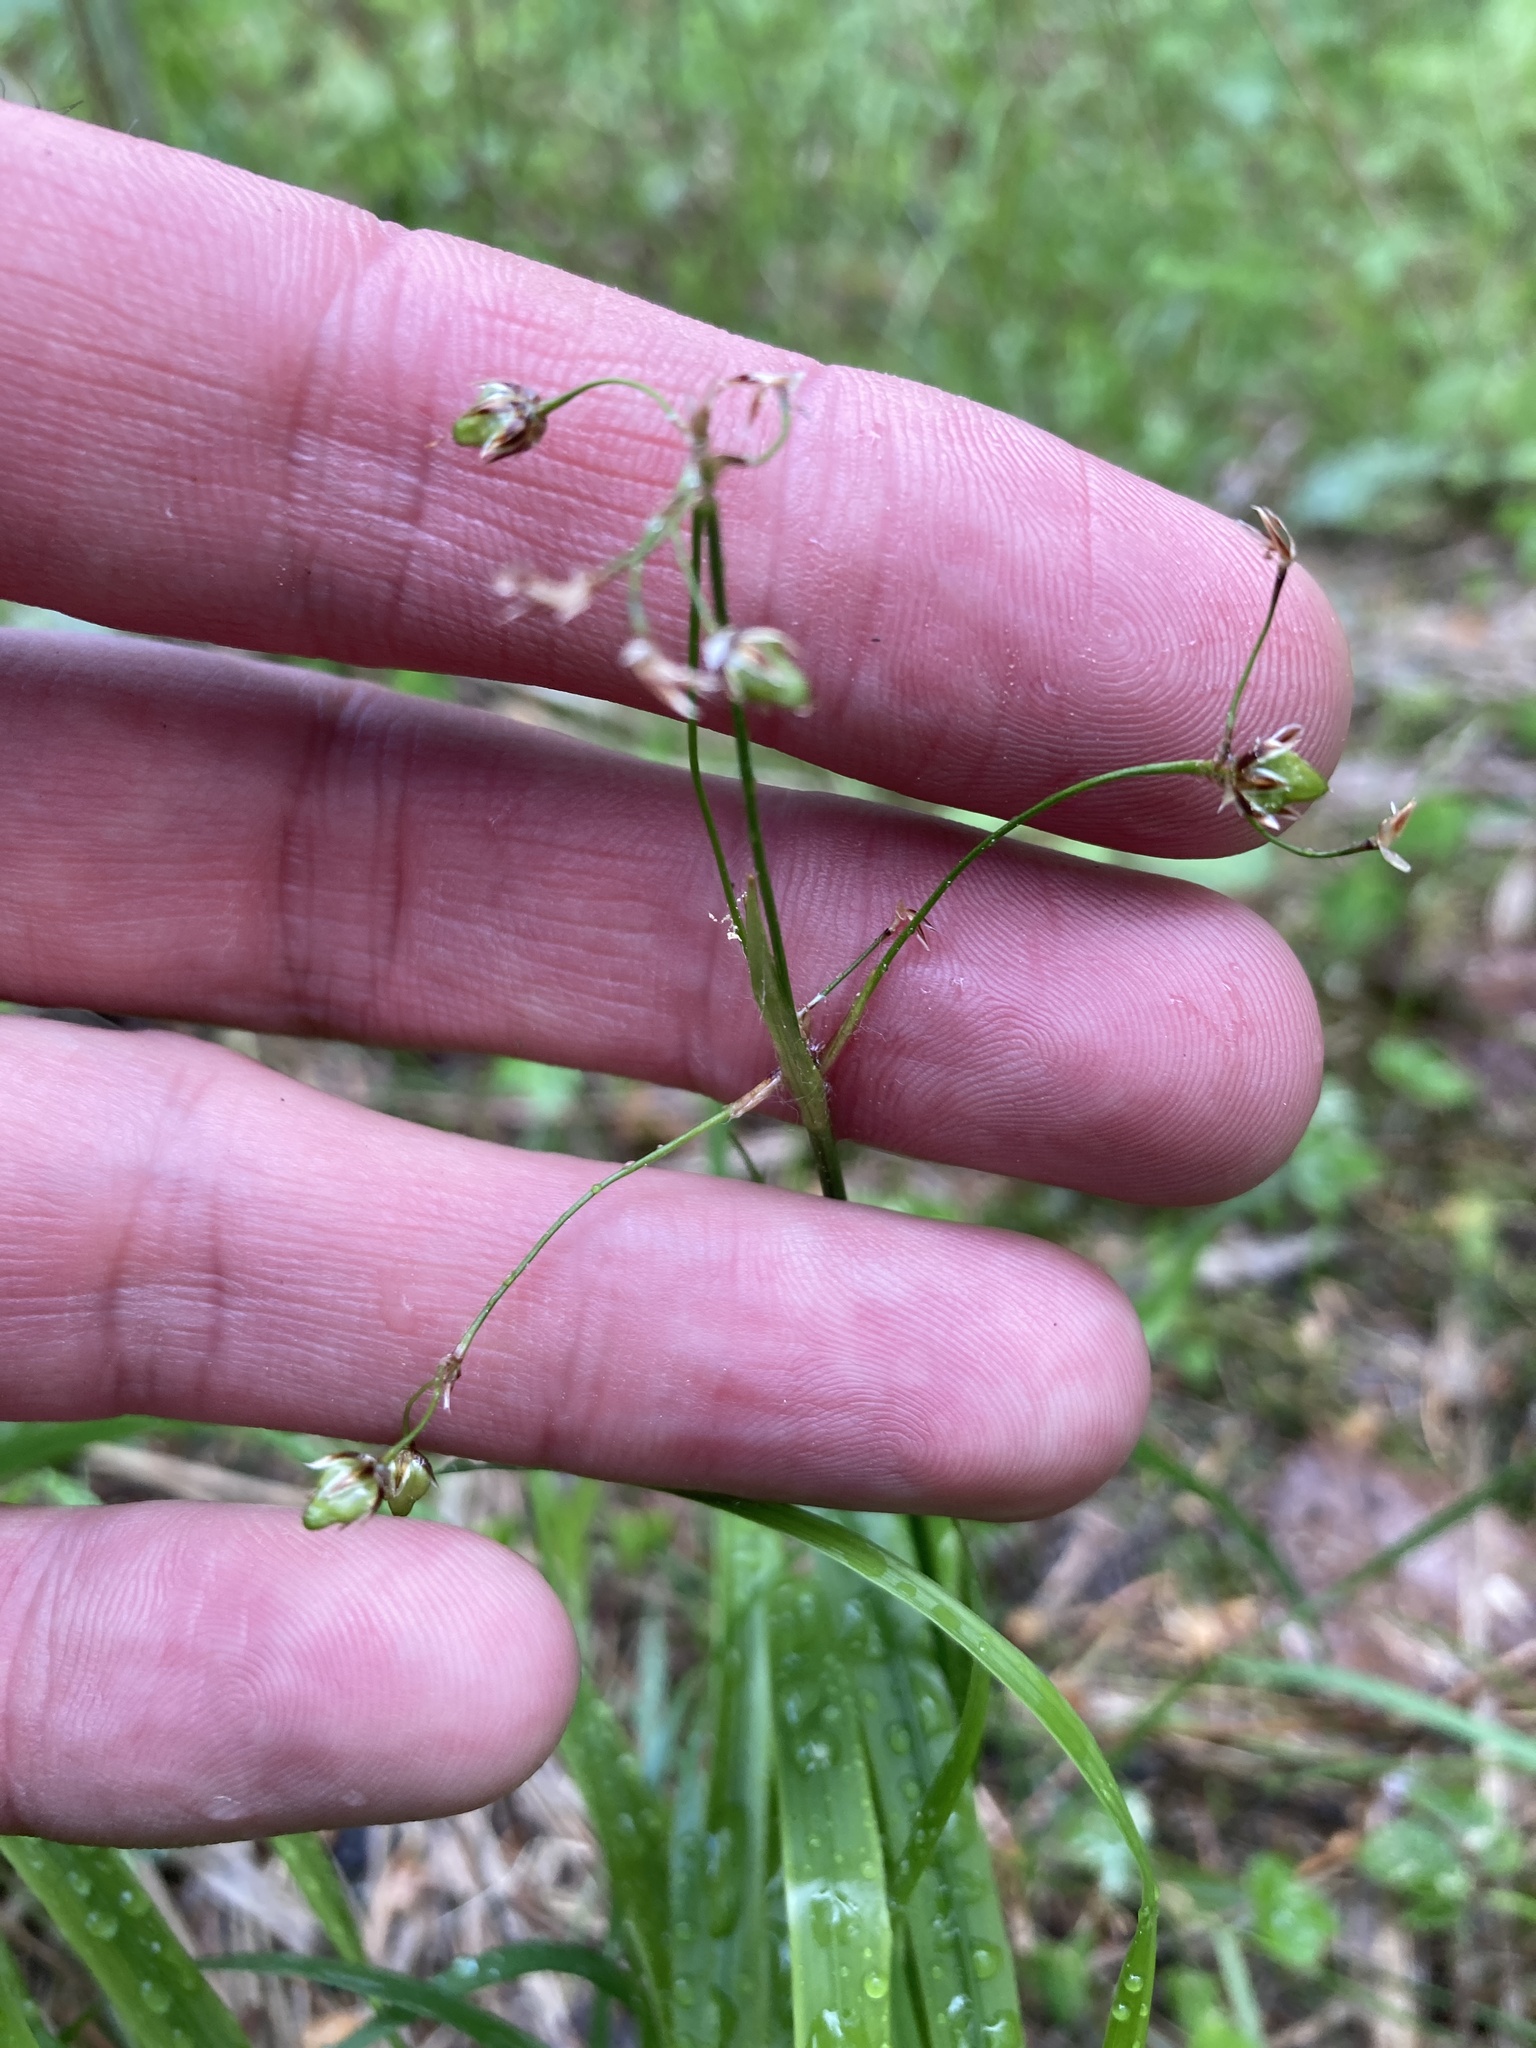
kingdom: Plantae
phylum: Tracheophyta
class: Liliopsida
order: Poales
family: Juncaceae
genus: Luzula
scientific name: Luzula pilosa
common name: Hairy wood-rush
